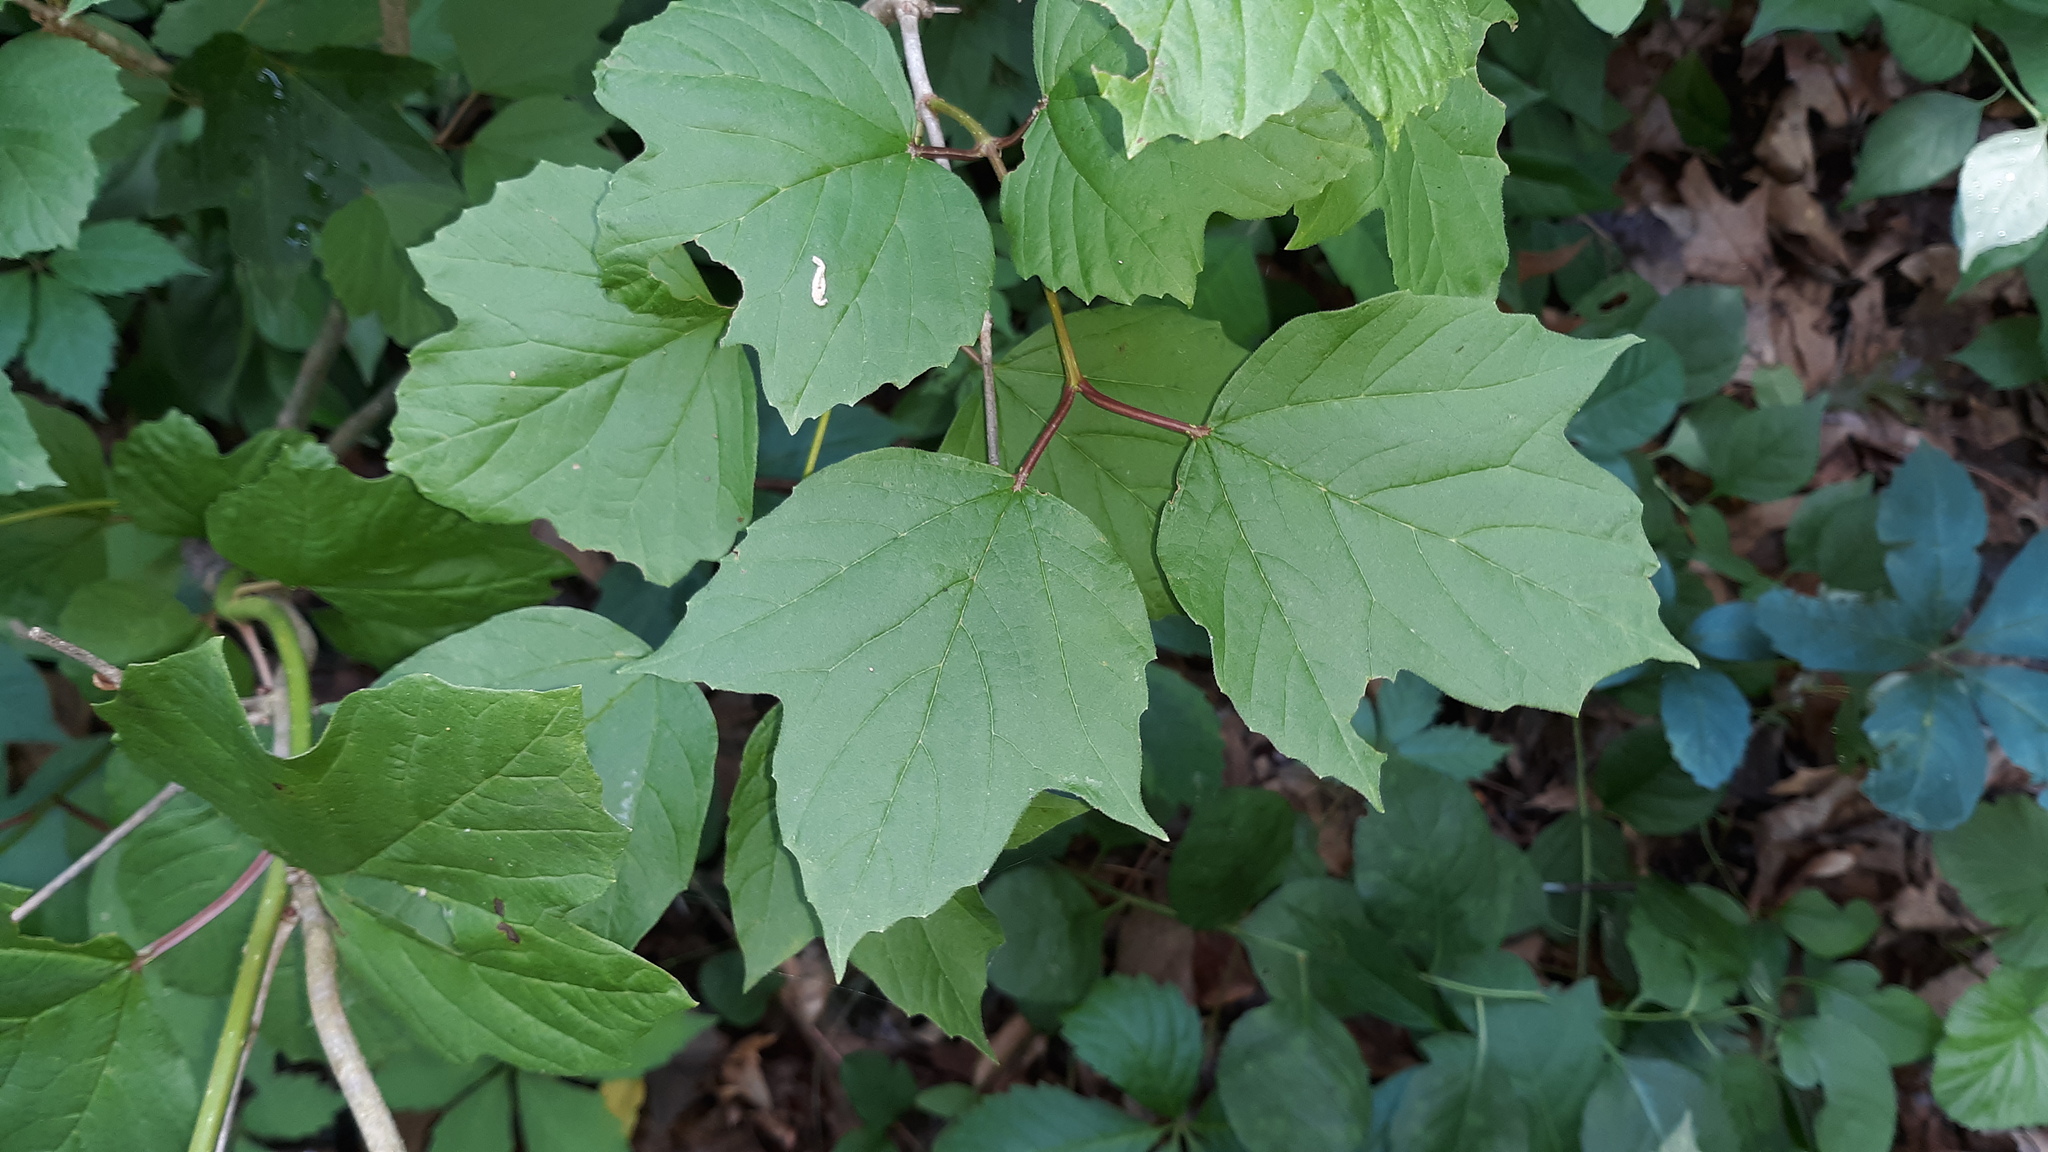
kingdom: Plantae
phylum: Tracheophyta
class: Magnoliopsida
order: Dipsacales
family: Viburnaceae
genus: Viburnum
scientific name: Viburnum opulus
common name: Guelder-rose
